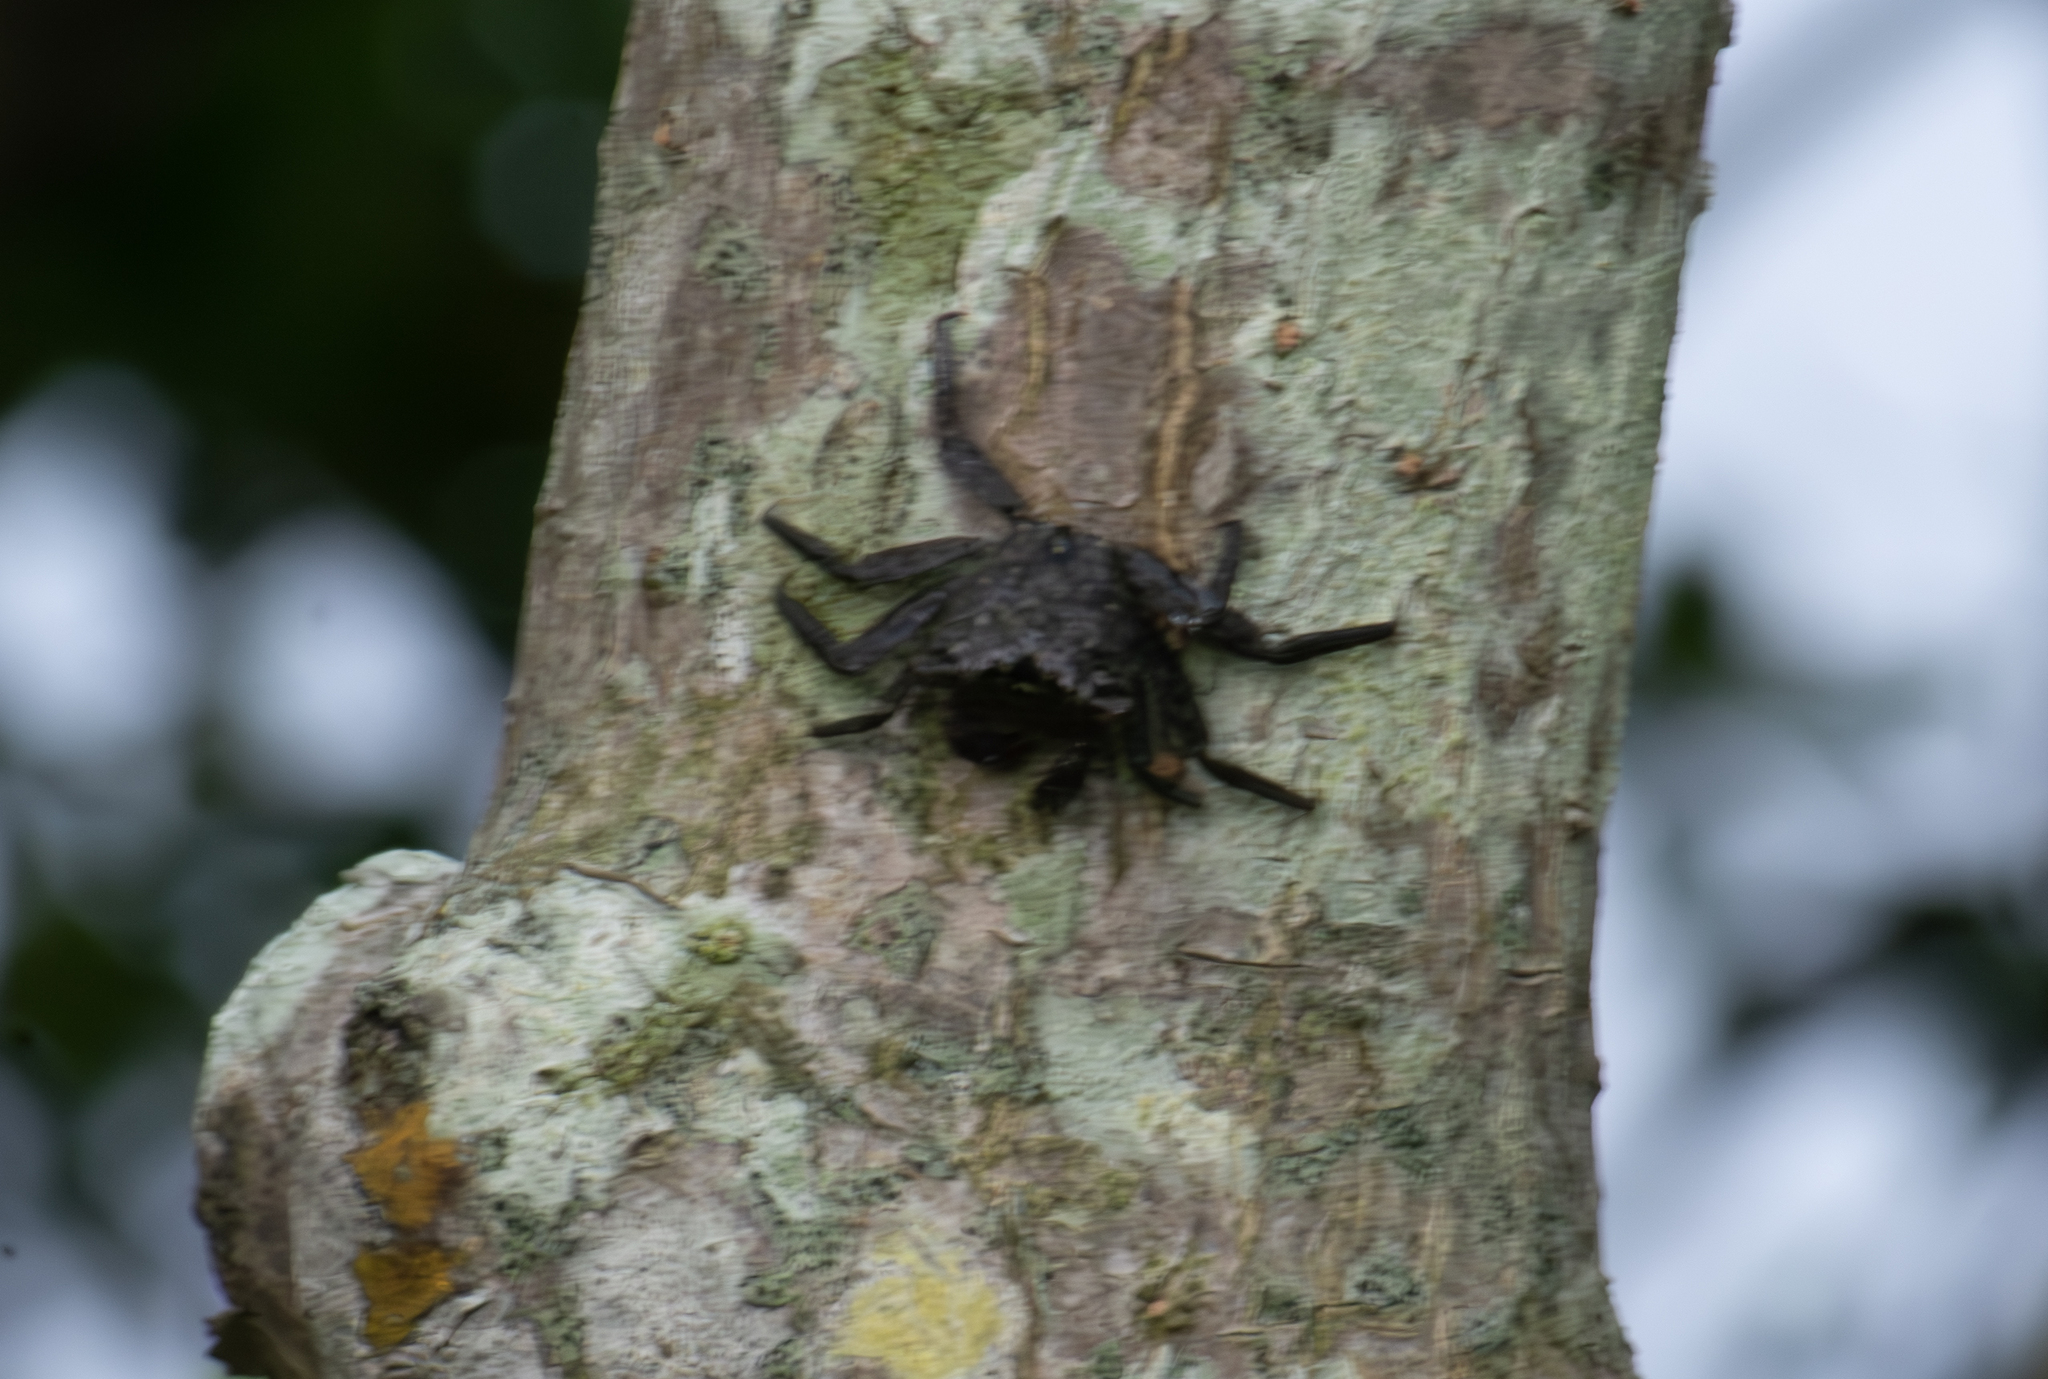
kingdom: Animalia
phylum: Arthropoda
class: Malacostraca
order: Decapoda
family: Sesarmidae
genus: Aratus
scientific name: Aratus pisonii
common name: Mangrove crab
